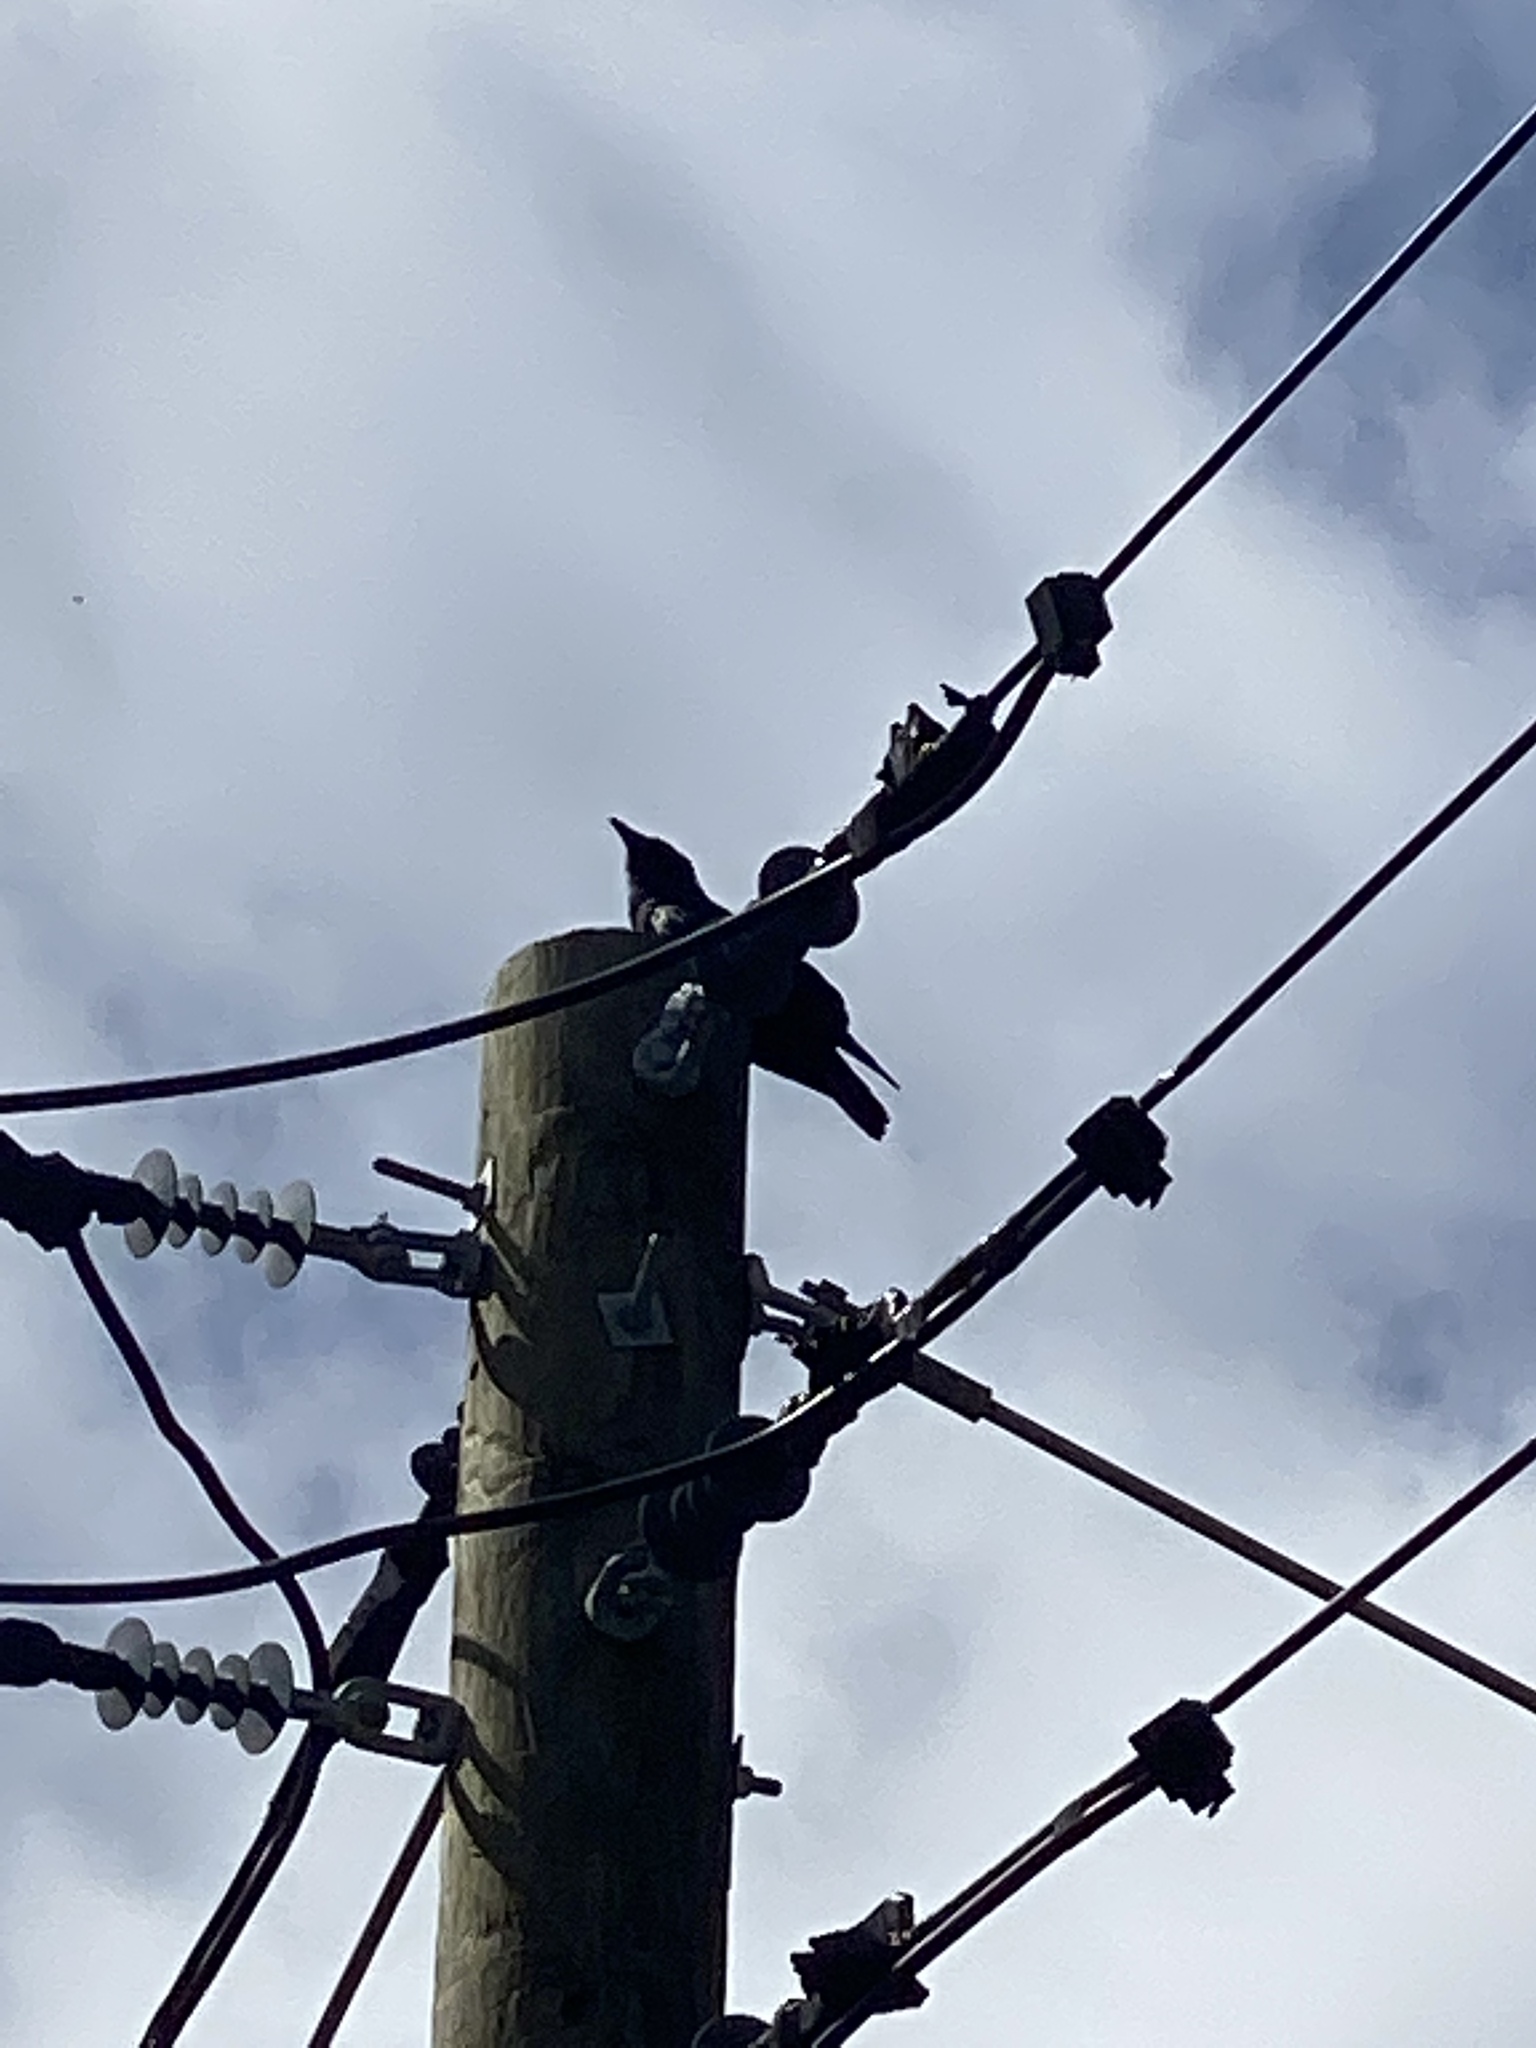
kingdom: Animalia
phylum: Chordata
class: Aves
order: Passeriformes
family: Corvidae
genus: Corvus
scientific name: Corvus ossifragus
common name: Fish crow
